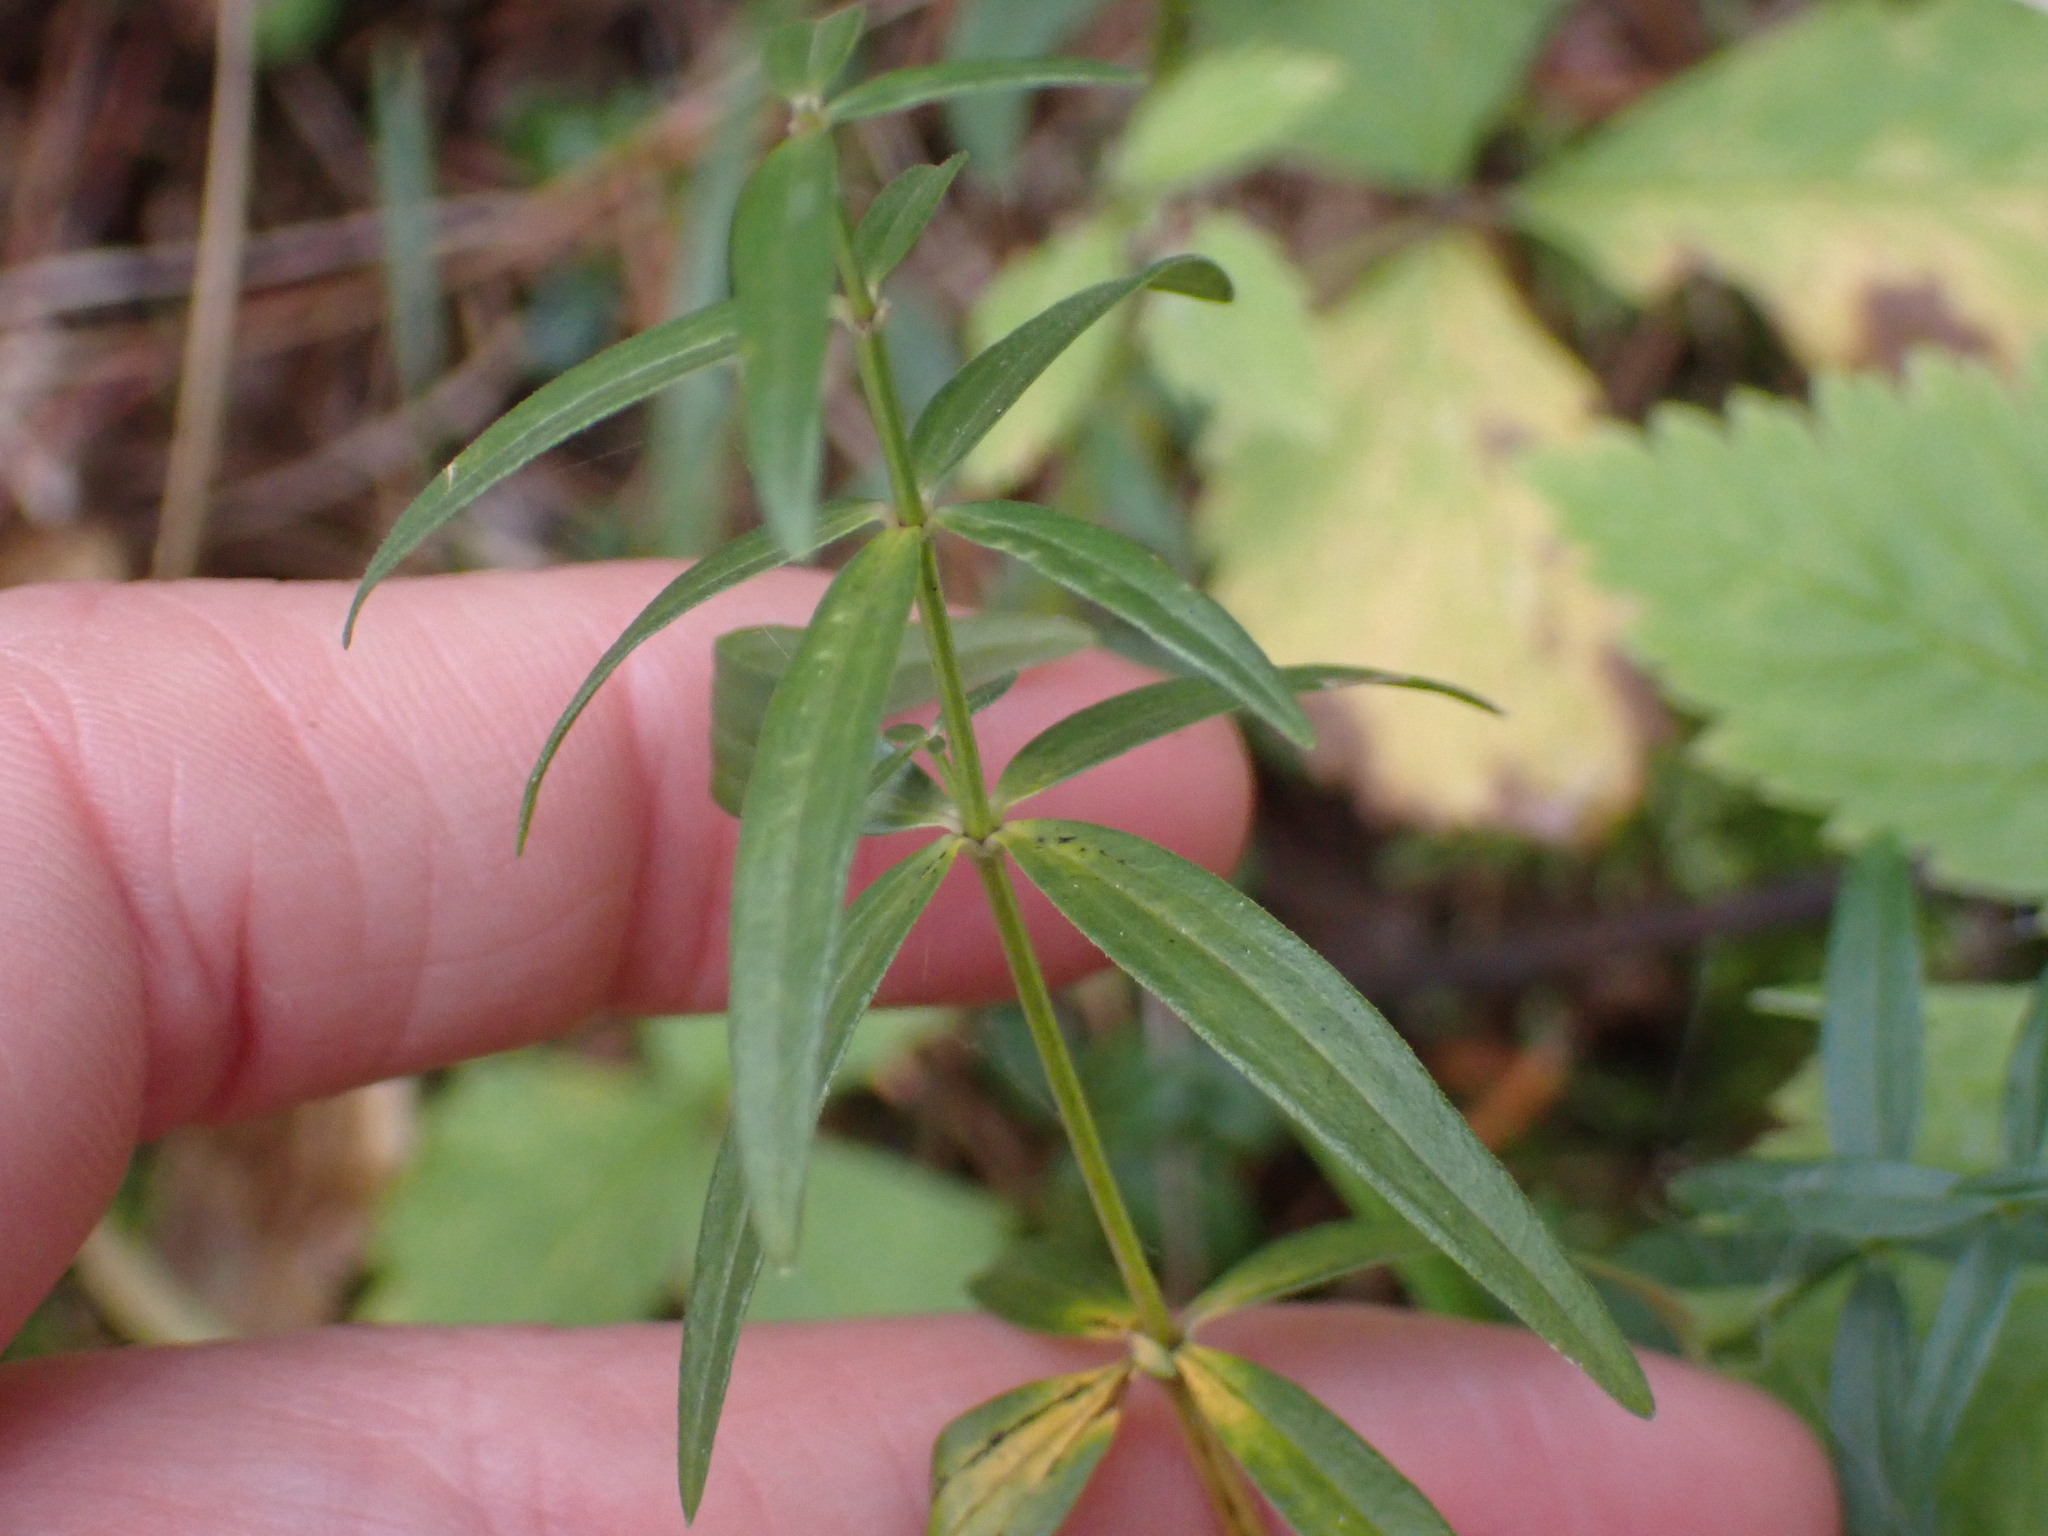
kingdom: Plantae
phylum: Tracheophyta
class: Magnoliopsida
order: Gentianales
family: Rubiaceae
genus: Galium
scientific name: Galium boreale
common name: Northern bedstraw
